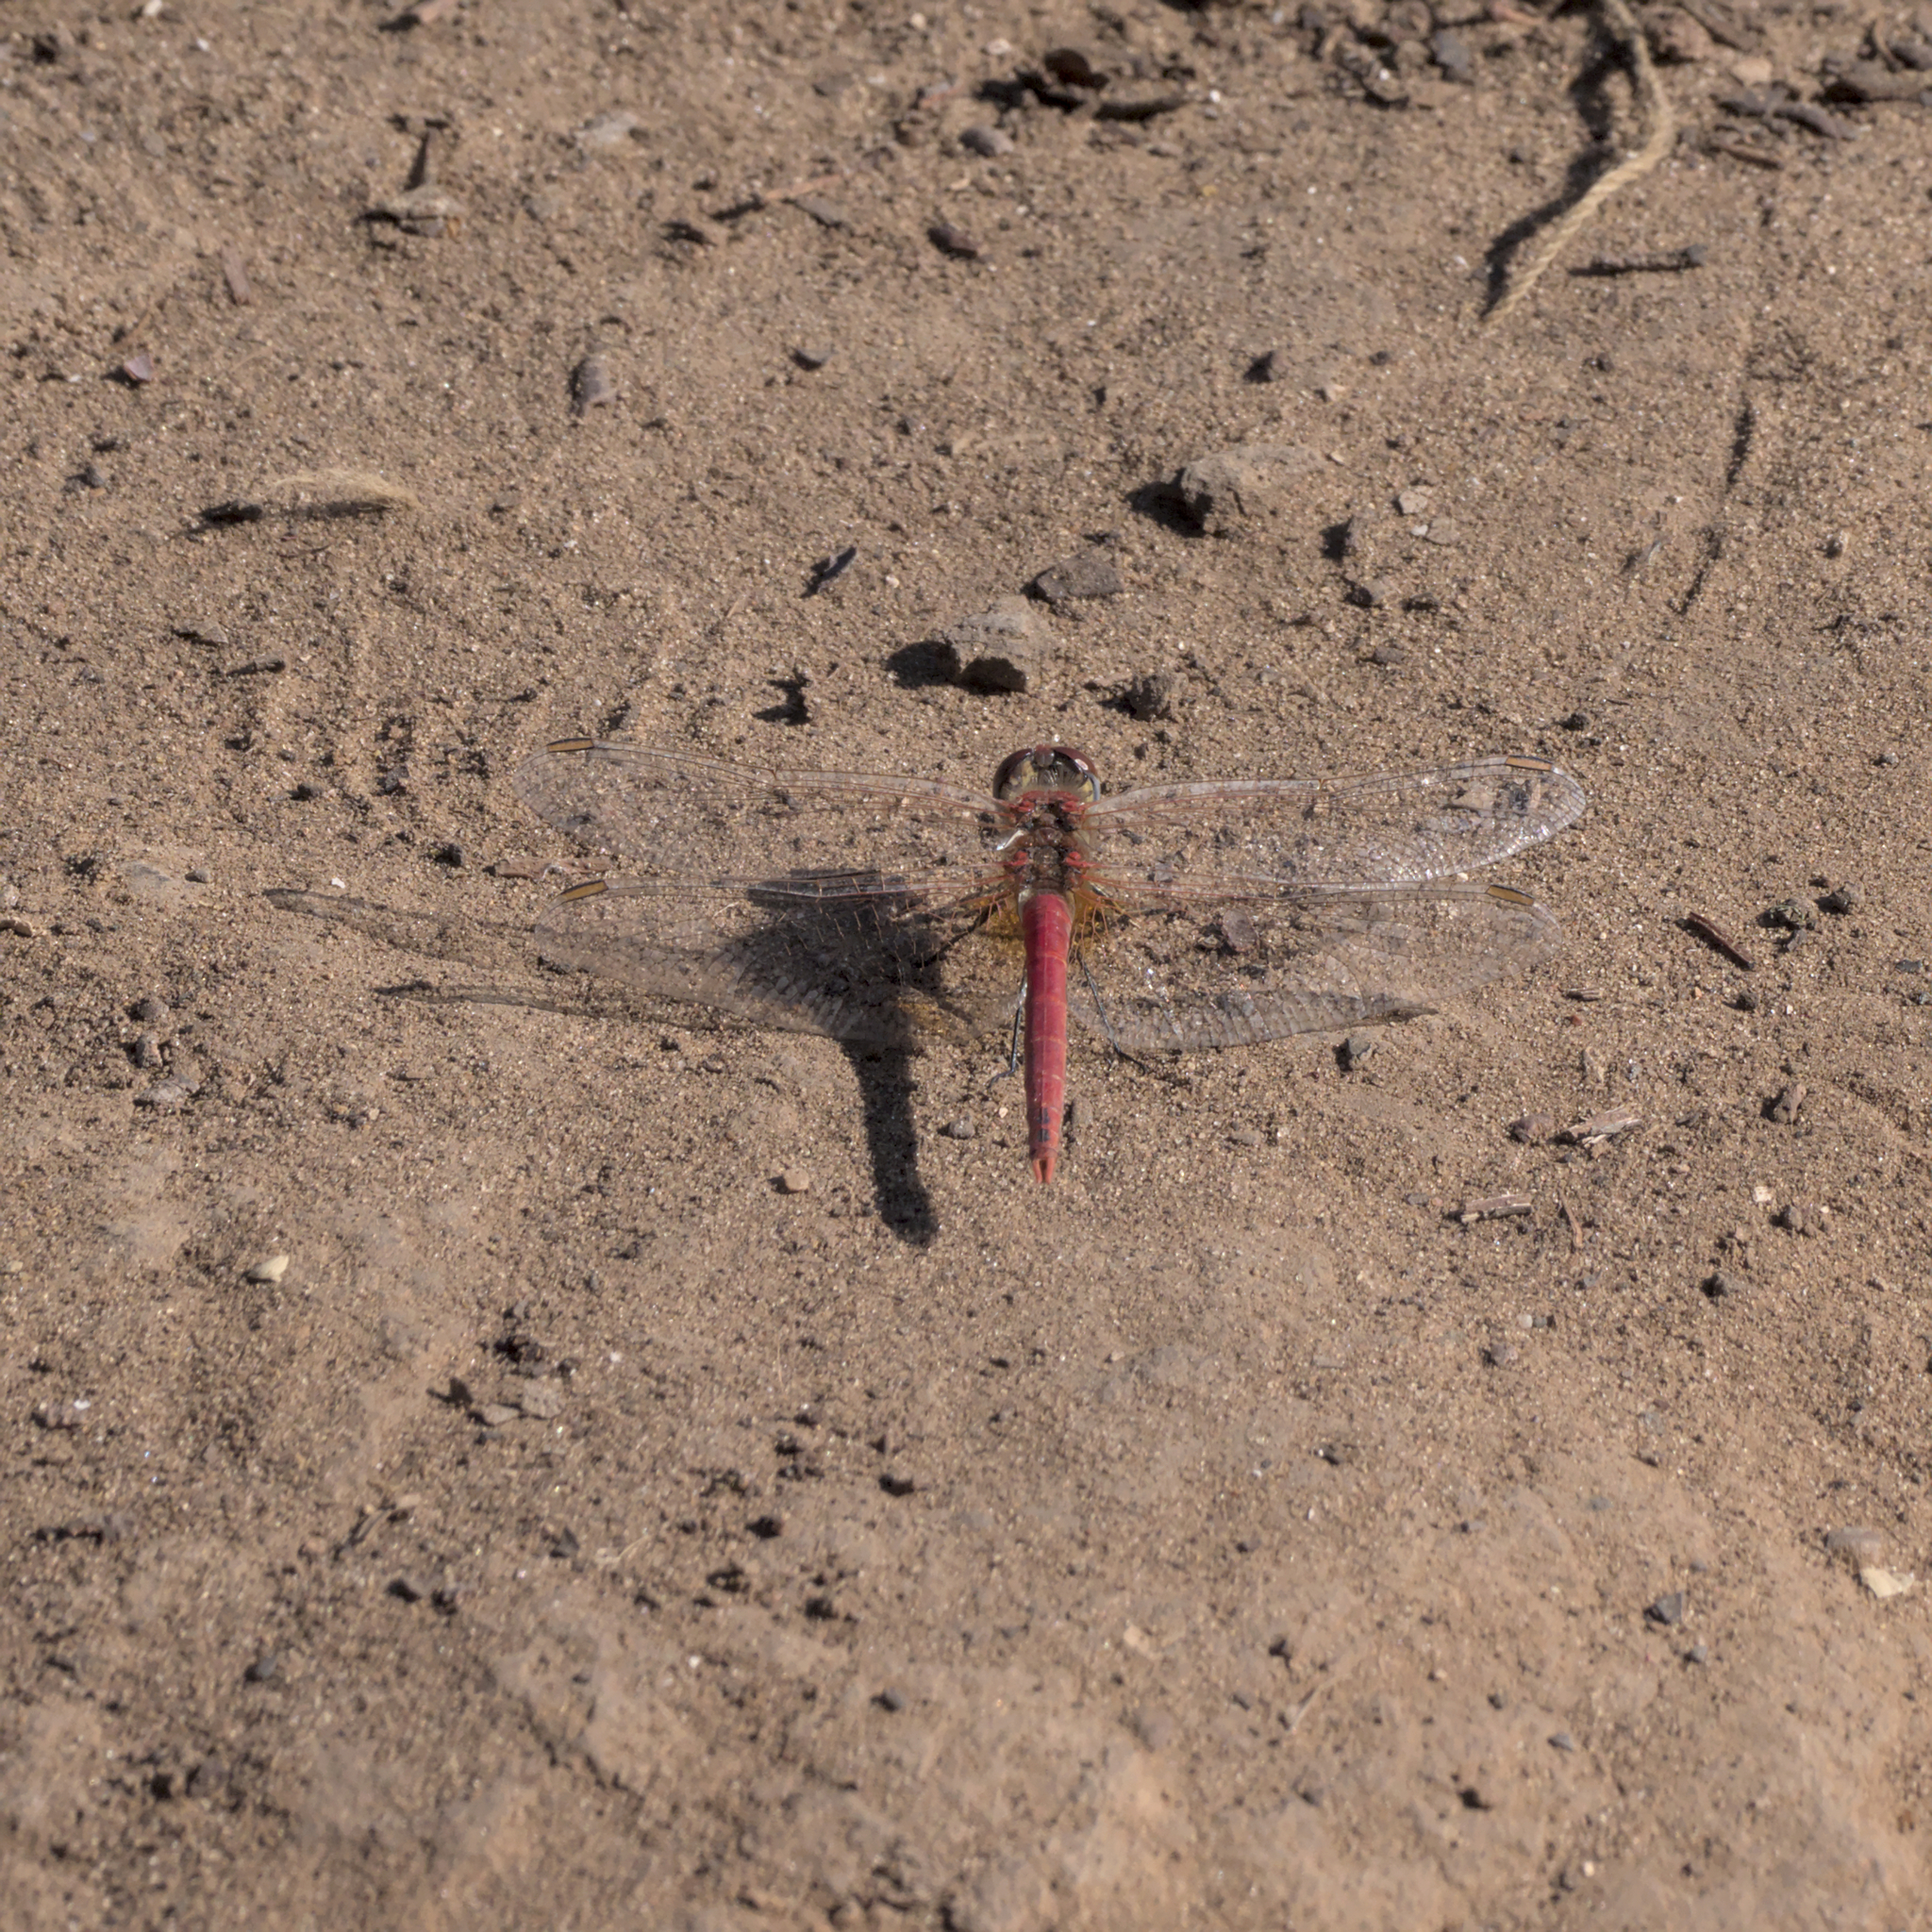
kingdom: Animalia
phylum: Arthropoda
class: Insecta
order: Odonata
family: Libellulidae
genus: Sympetrum
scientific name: Sympetrum fonscolombii
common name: Red-veined darter
